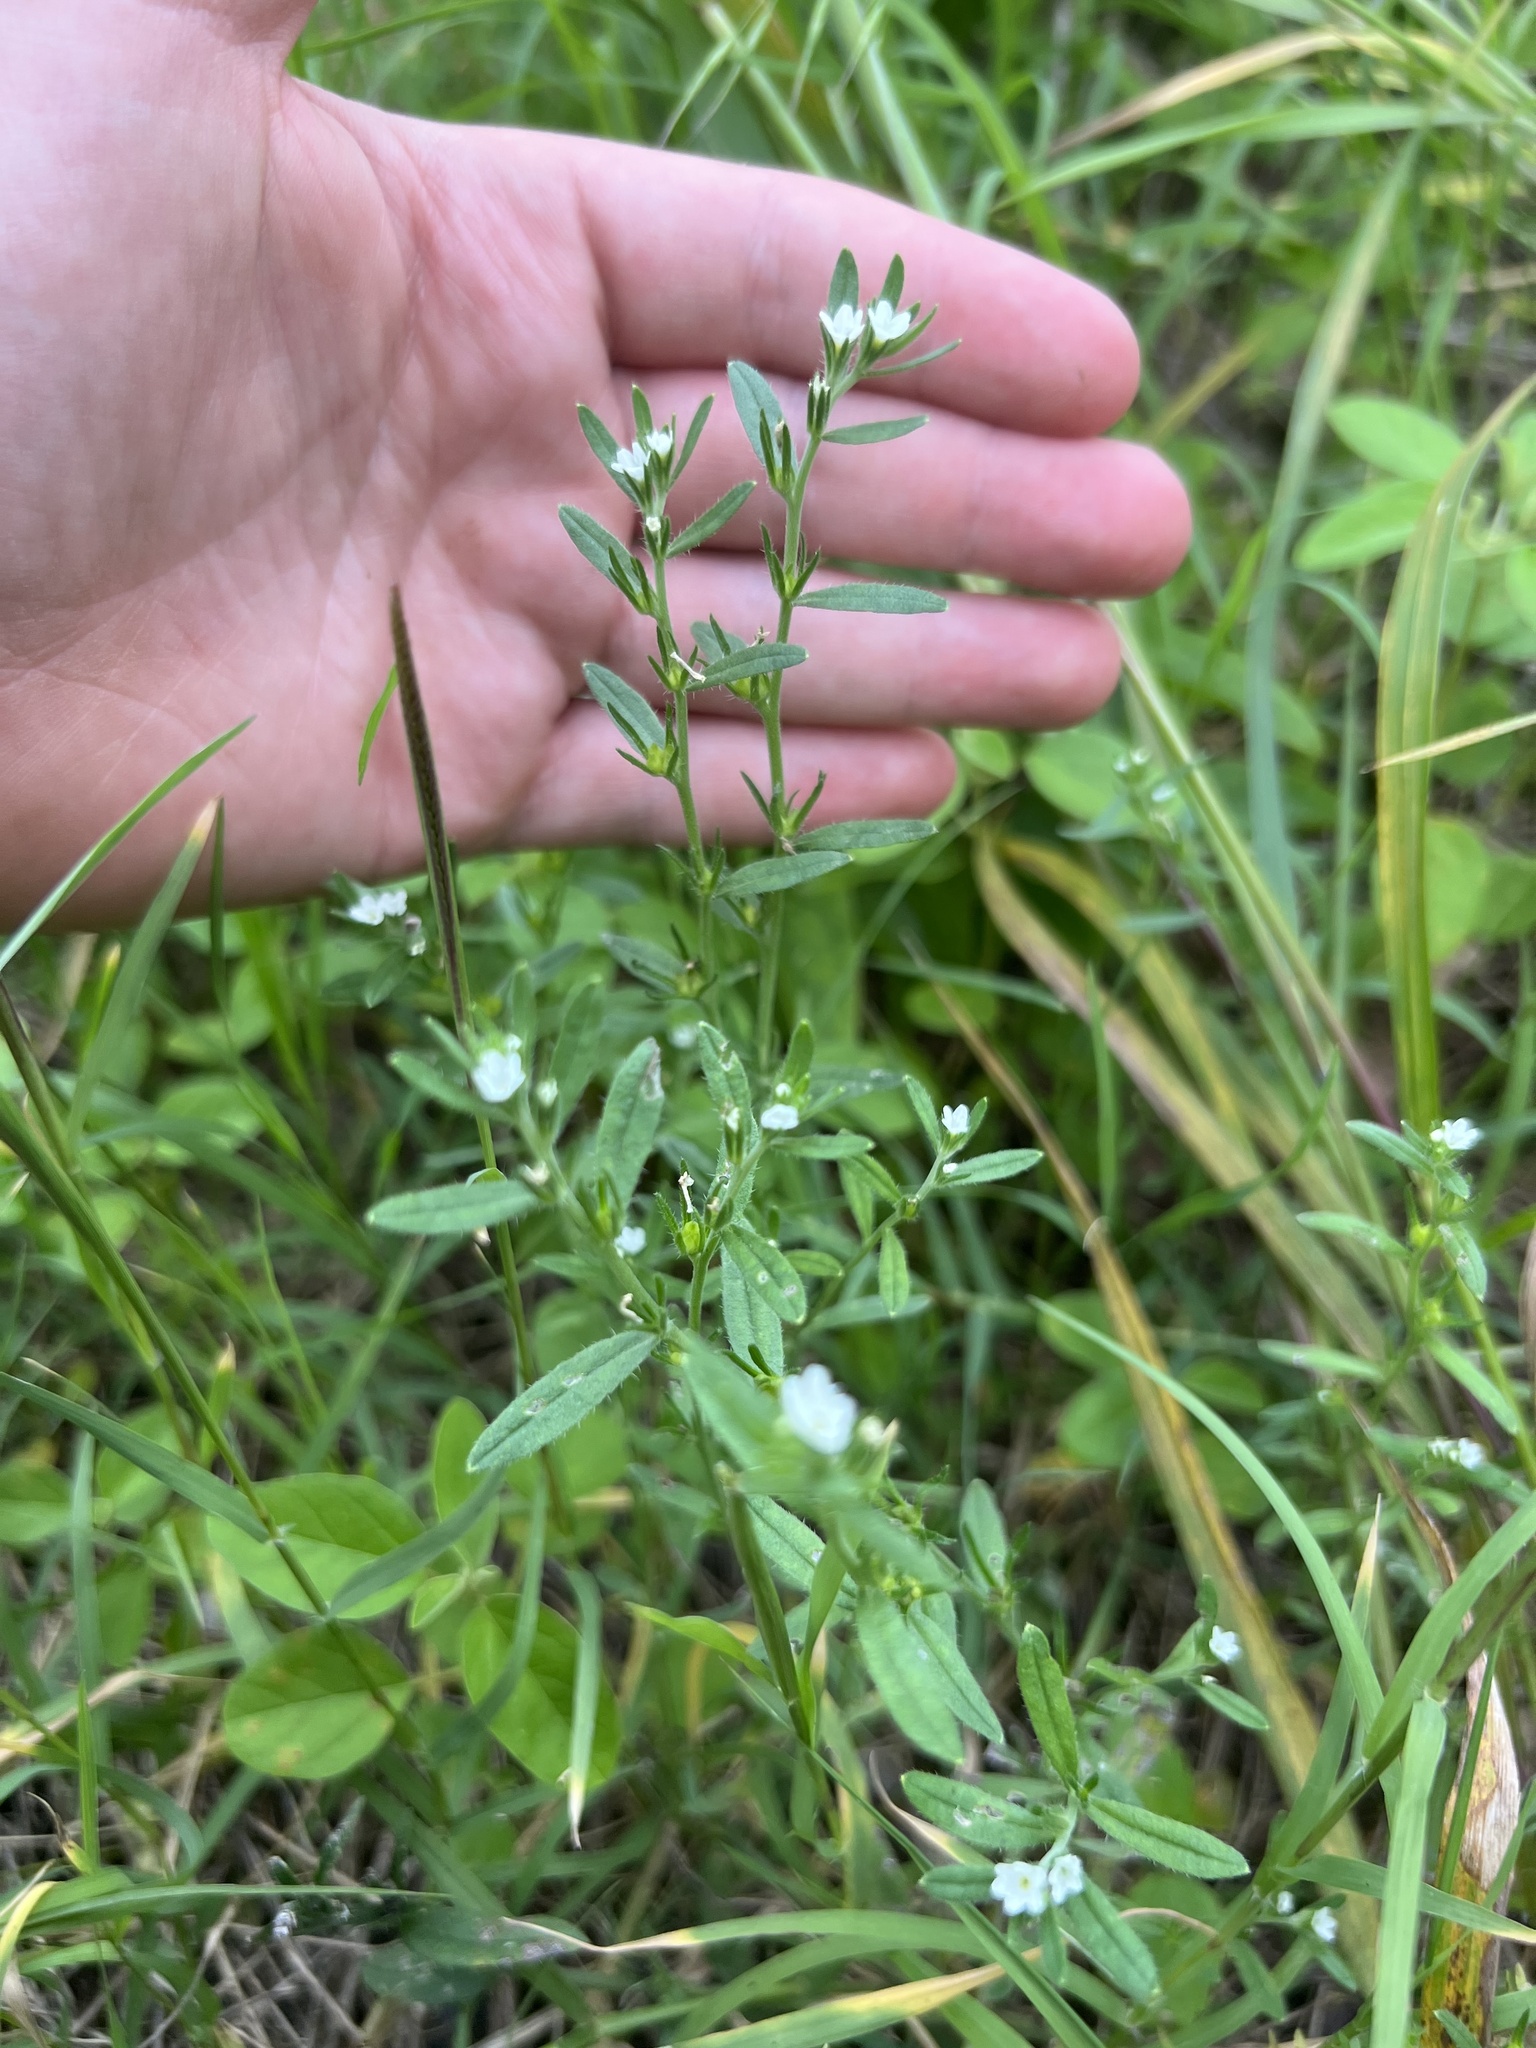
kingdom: Plantae
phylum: Tracheophyta
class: Magnoliopsida
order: Boraginales
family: Boraginaceae
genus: Buglossoides
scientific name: Buglossoides arvensis
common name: Corn gromwell
